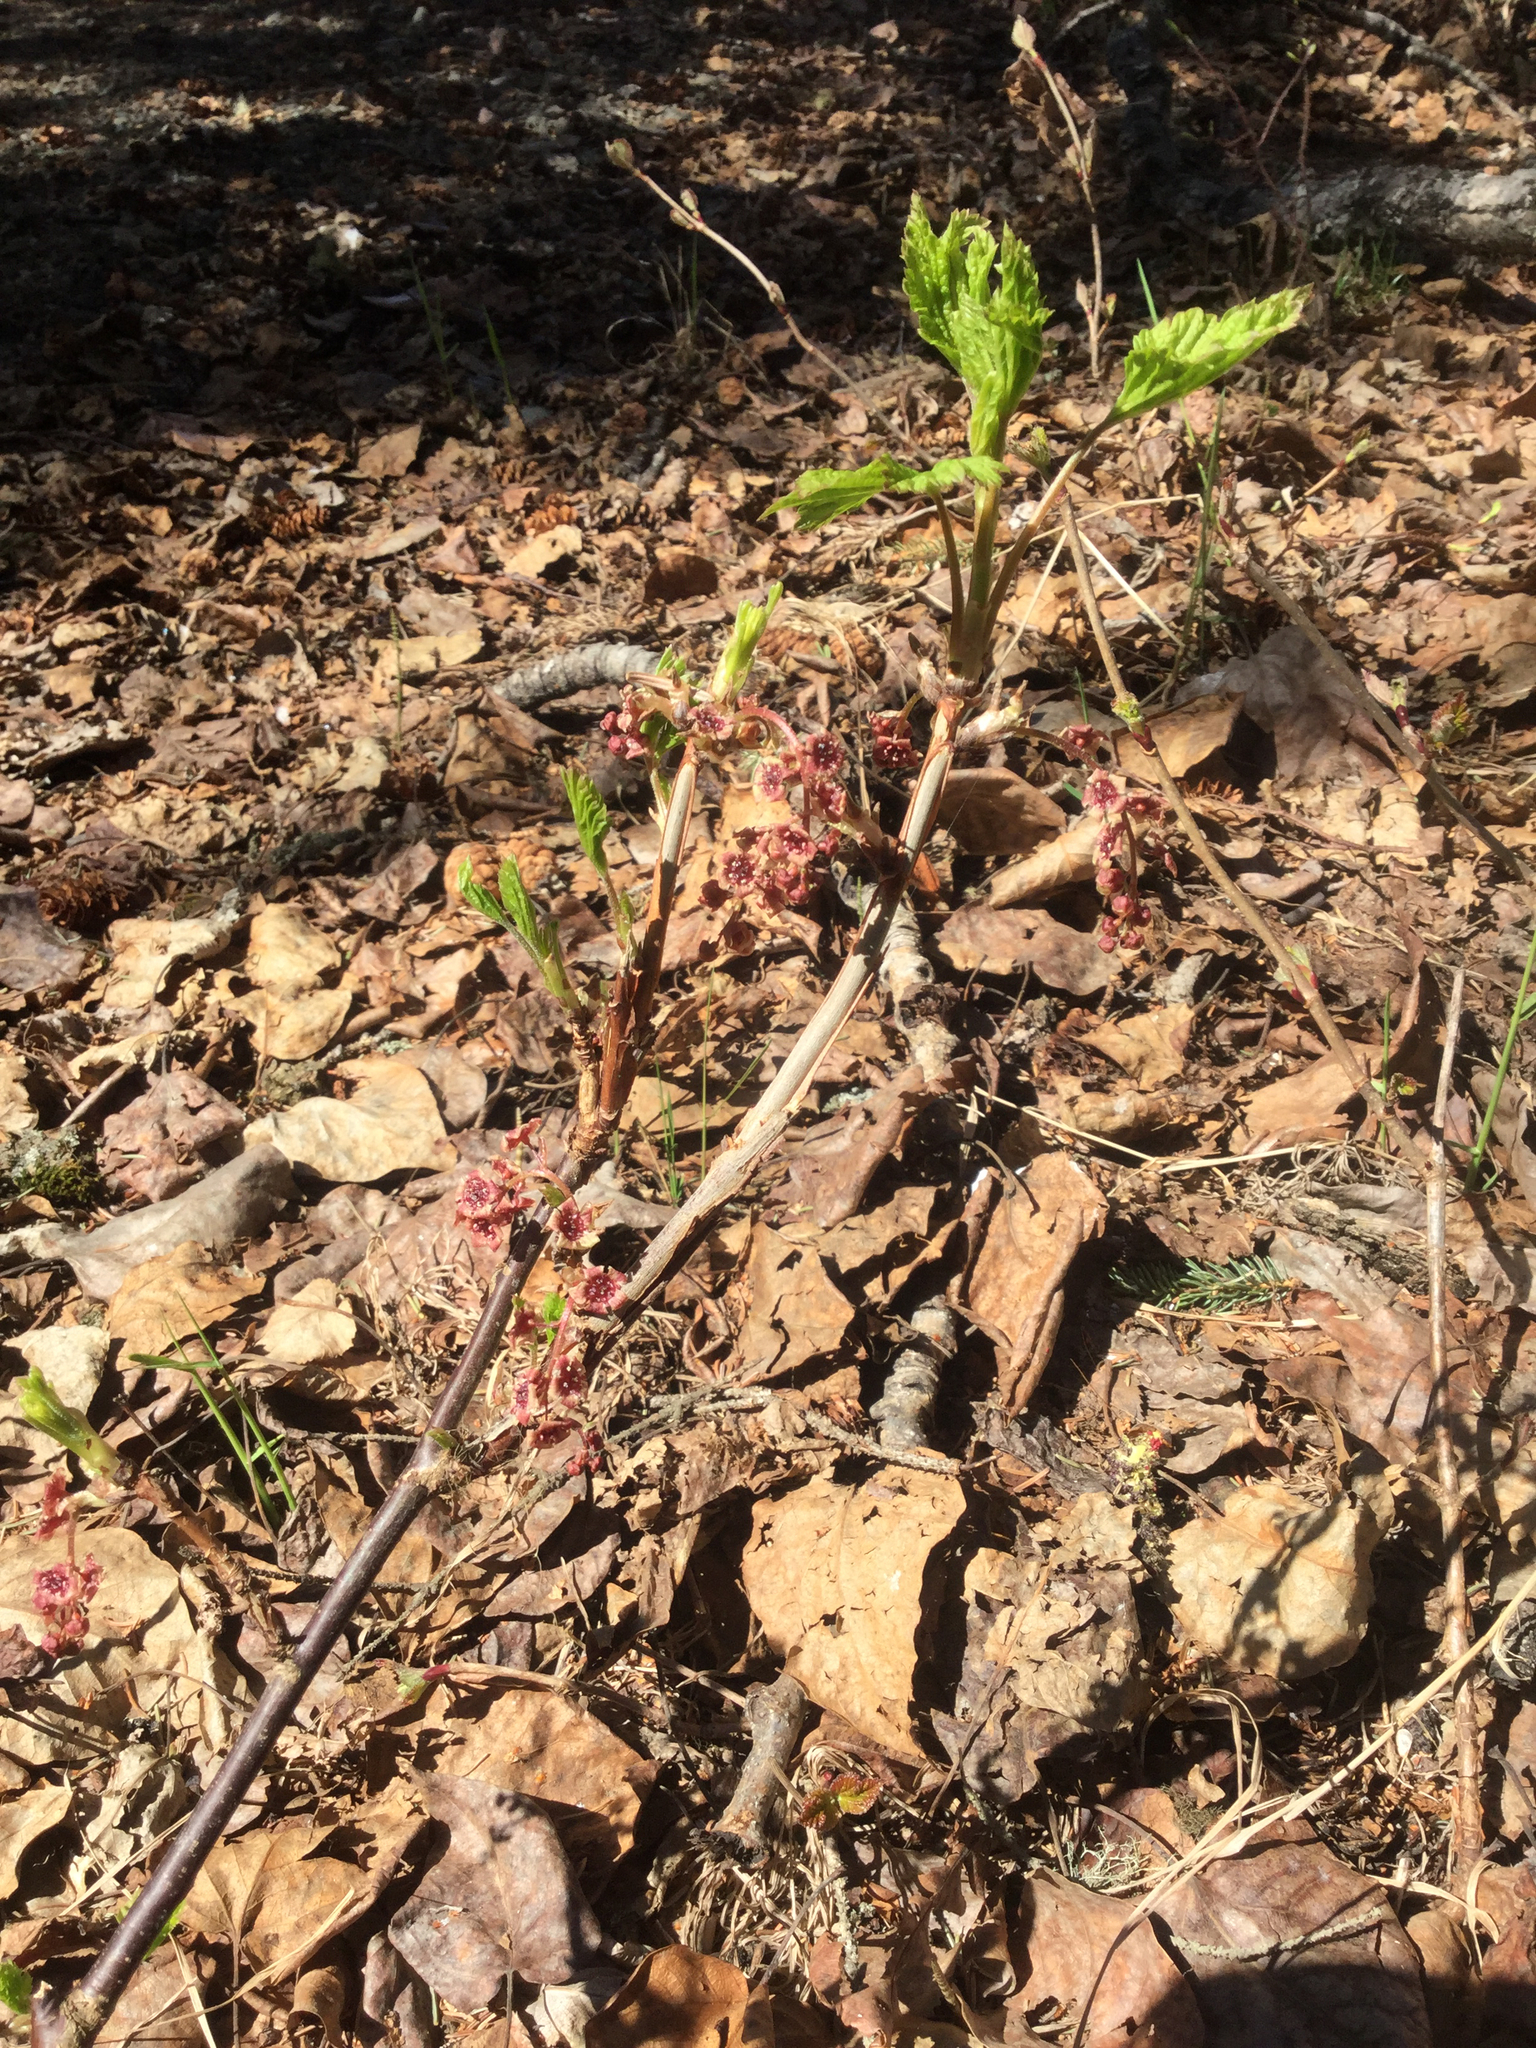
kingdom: Plantae
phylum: Tracheophyta
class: Magnoliopsida
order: Saxifragales
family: Grossulariaceae
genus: Ribes
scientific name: Ribes triste
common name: Swamp red currant
